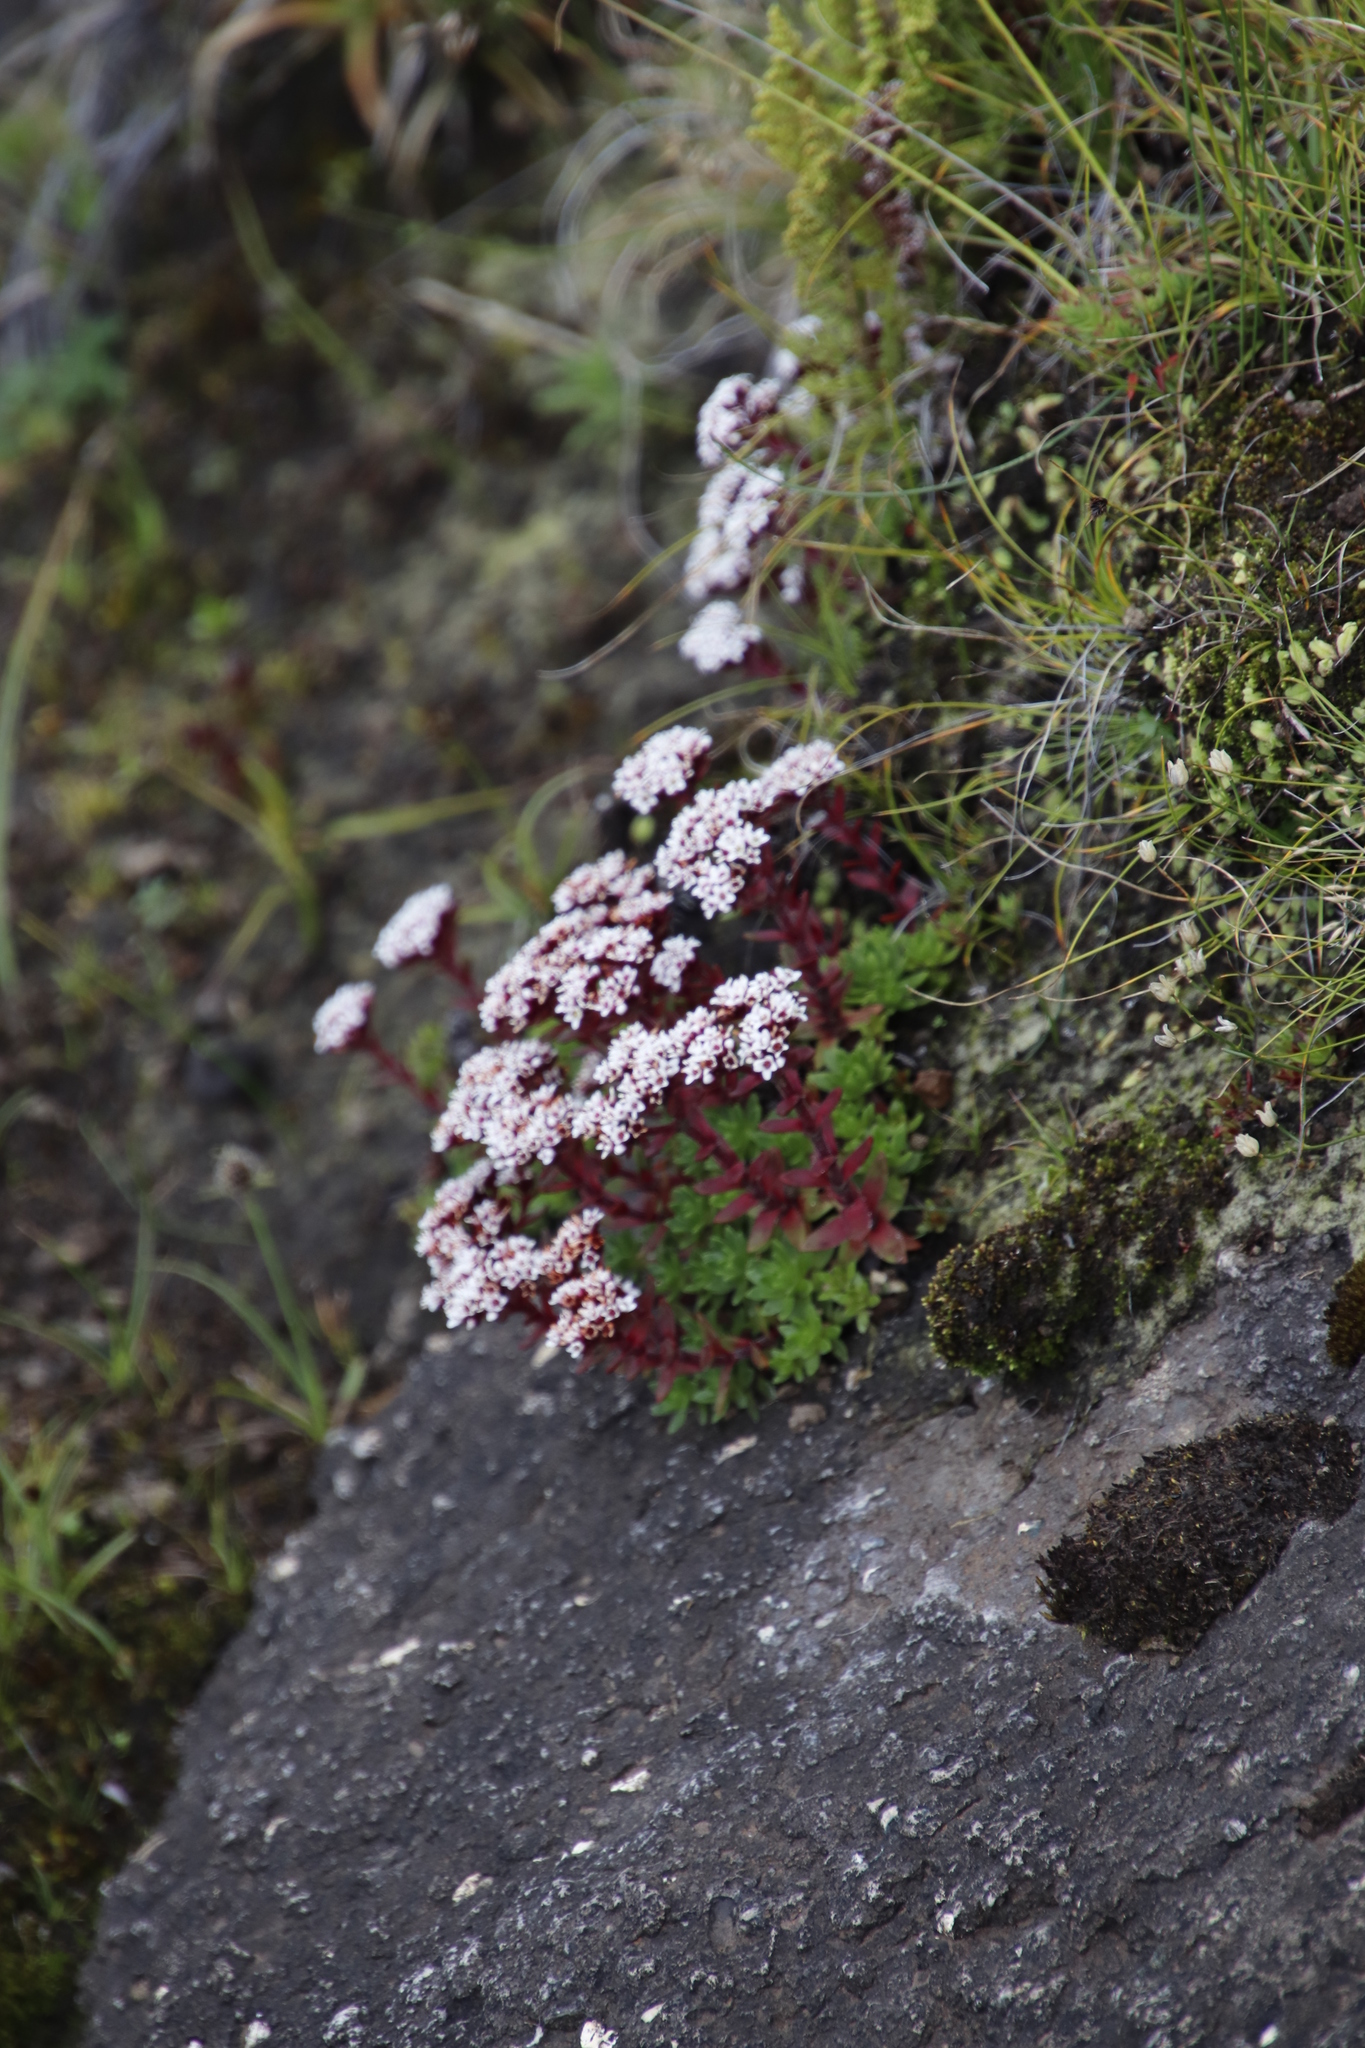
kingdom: Plantae
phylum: Tracheophyta
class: Magnoliopsida
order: Saxifragales
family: Crassulaceae
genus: Crassula
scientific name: Crassula setulosa
